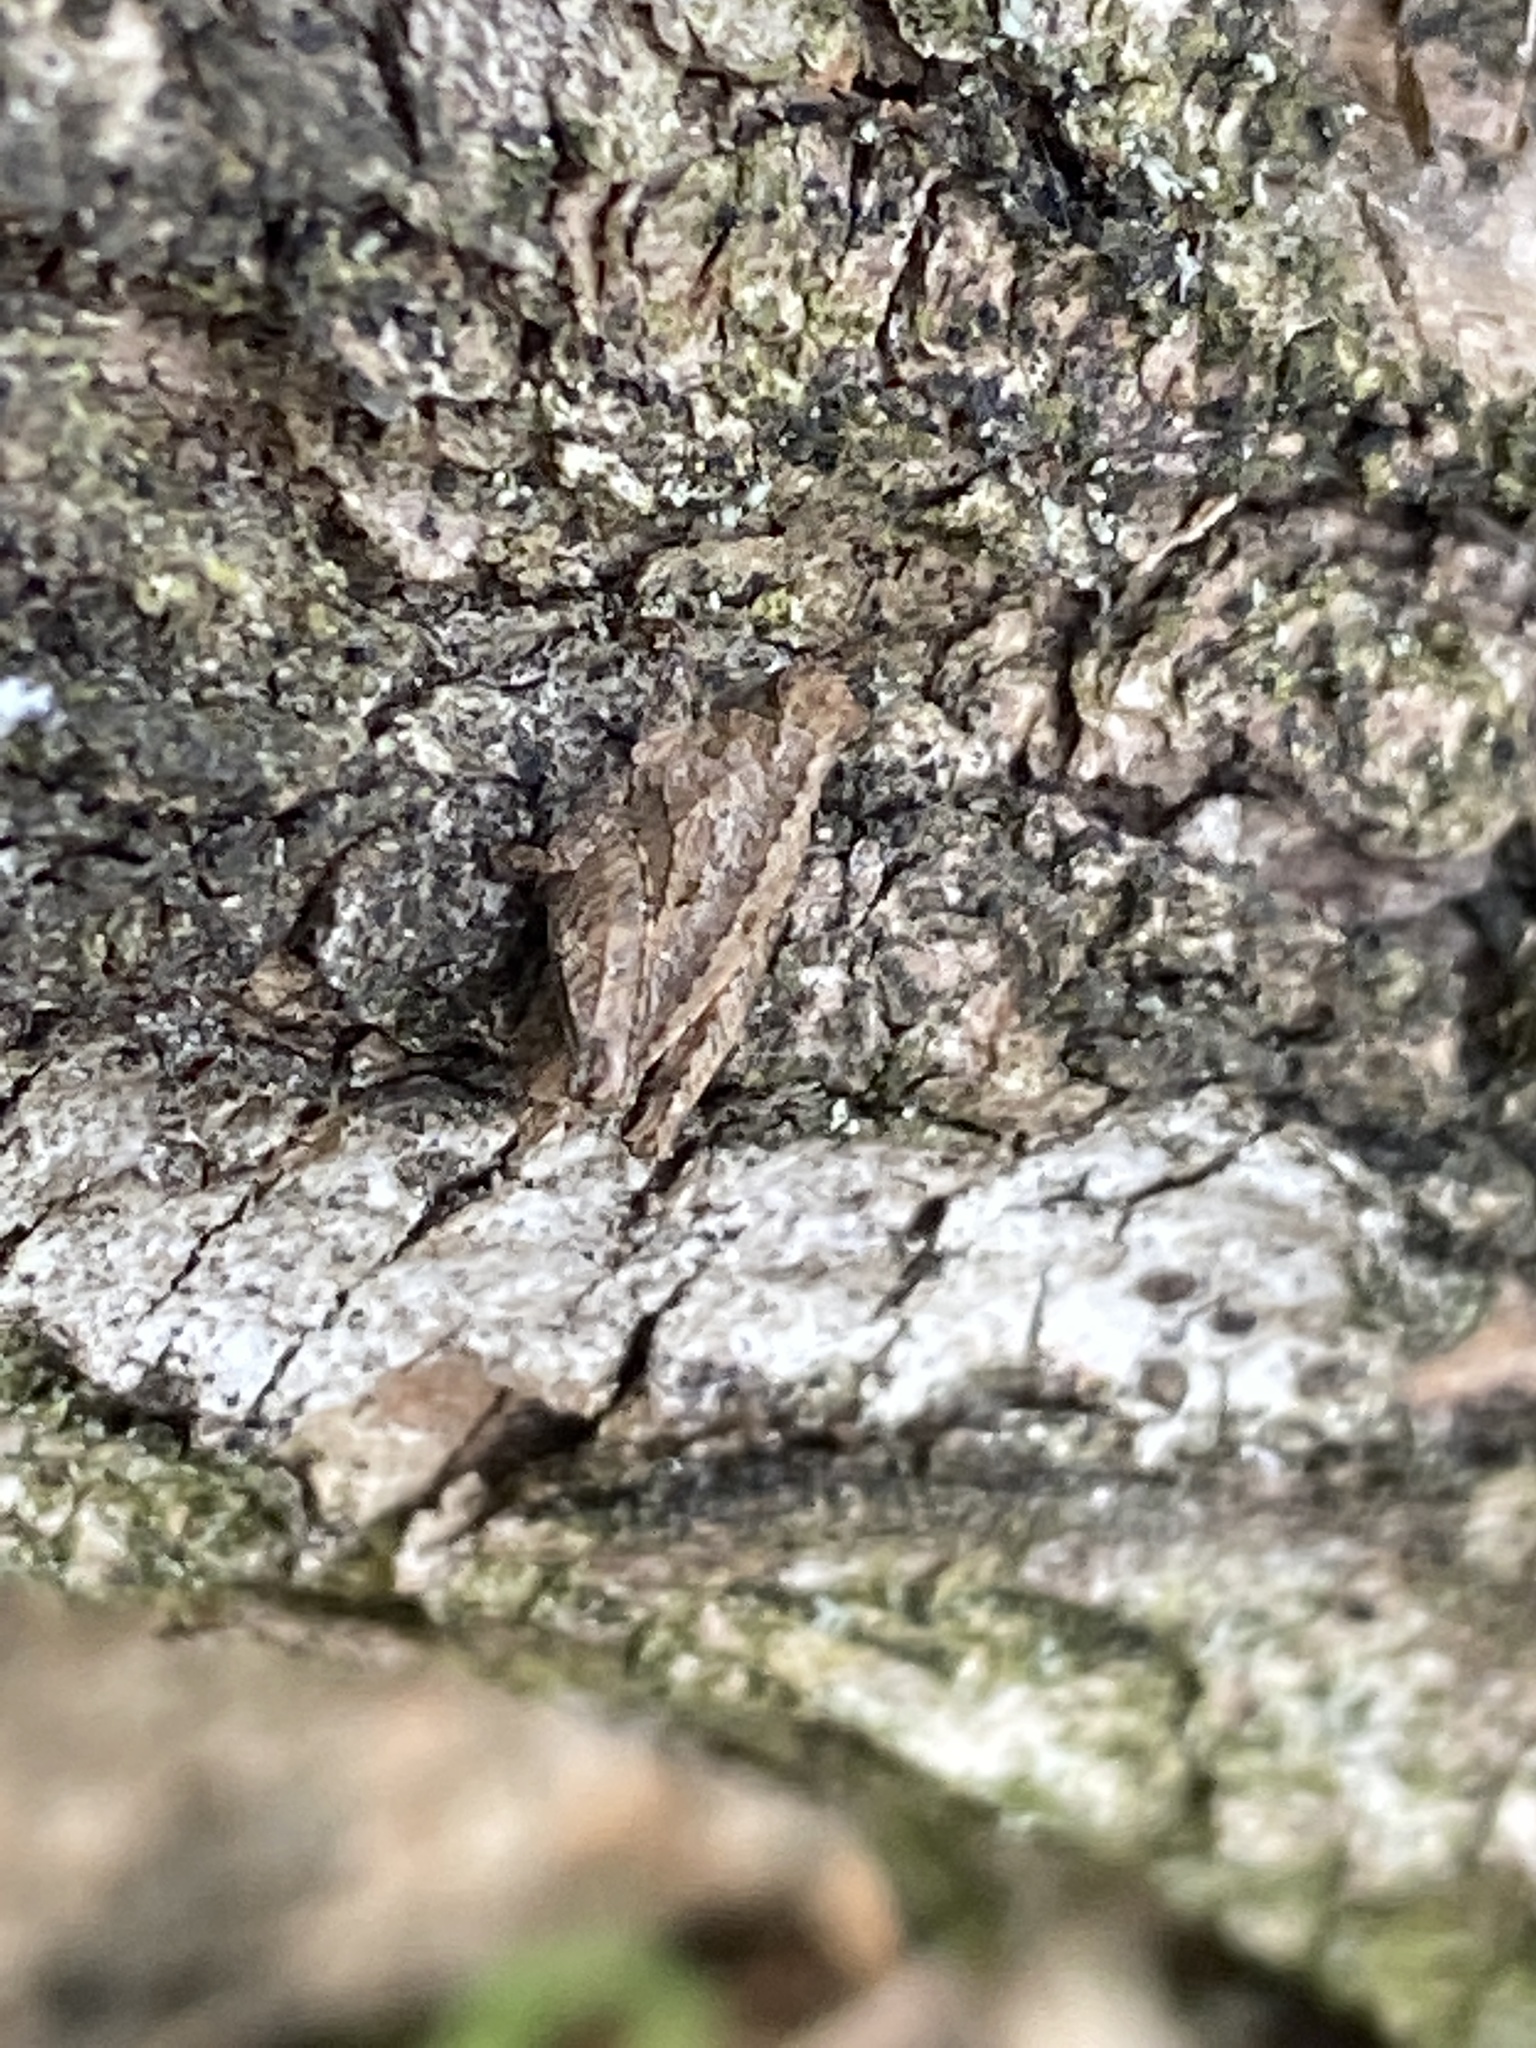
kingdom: Animalia
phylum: Arthropoda
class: Insecta
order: Orthoptera
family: Tetrigidae
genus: Tetrix
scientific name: Tetrix tenuicornis
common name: Long-horned groundhopper
